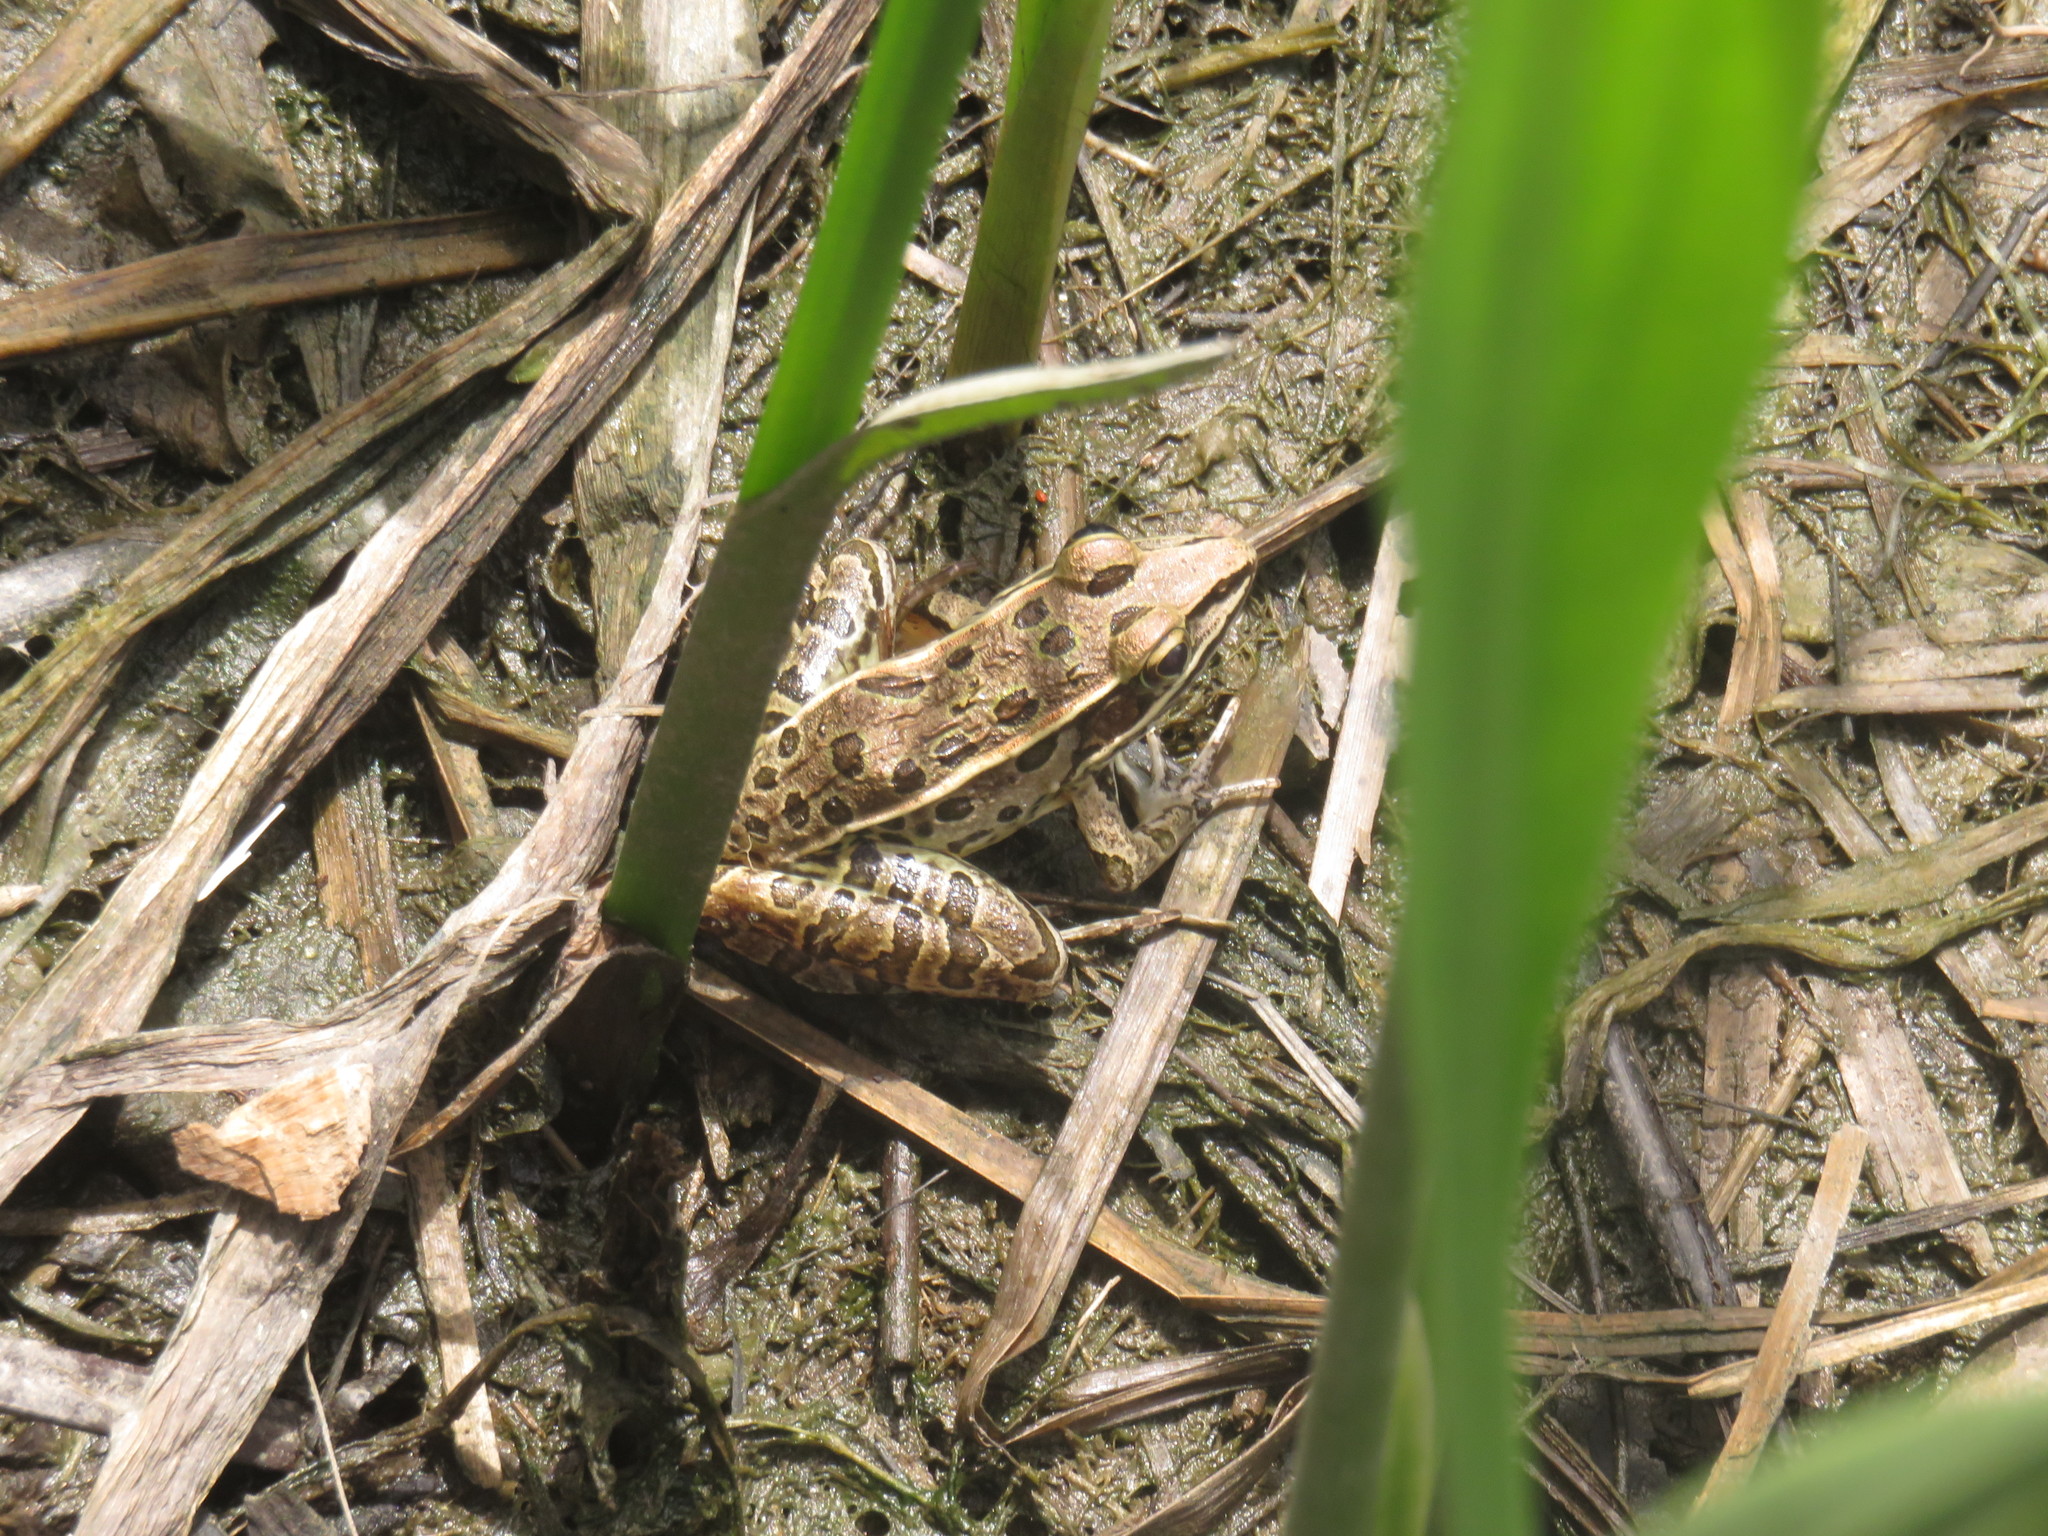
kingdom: Animalia
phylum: Chordata
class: Amphibia
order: Anura
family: Ranidae
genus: Lithobates
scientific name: Lithobates sphenocephalus
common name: Southern leopard frog
